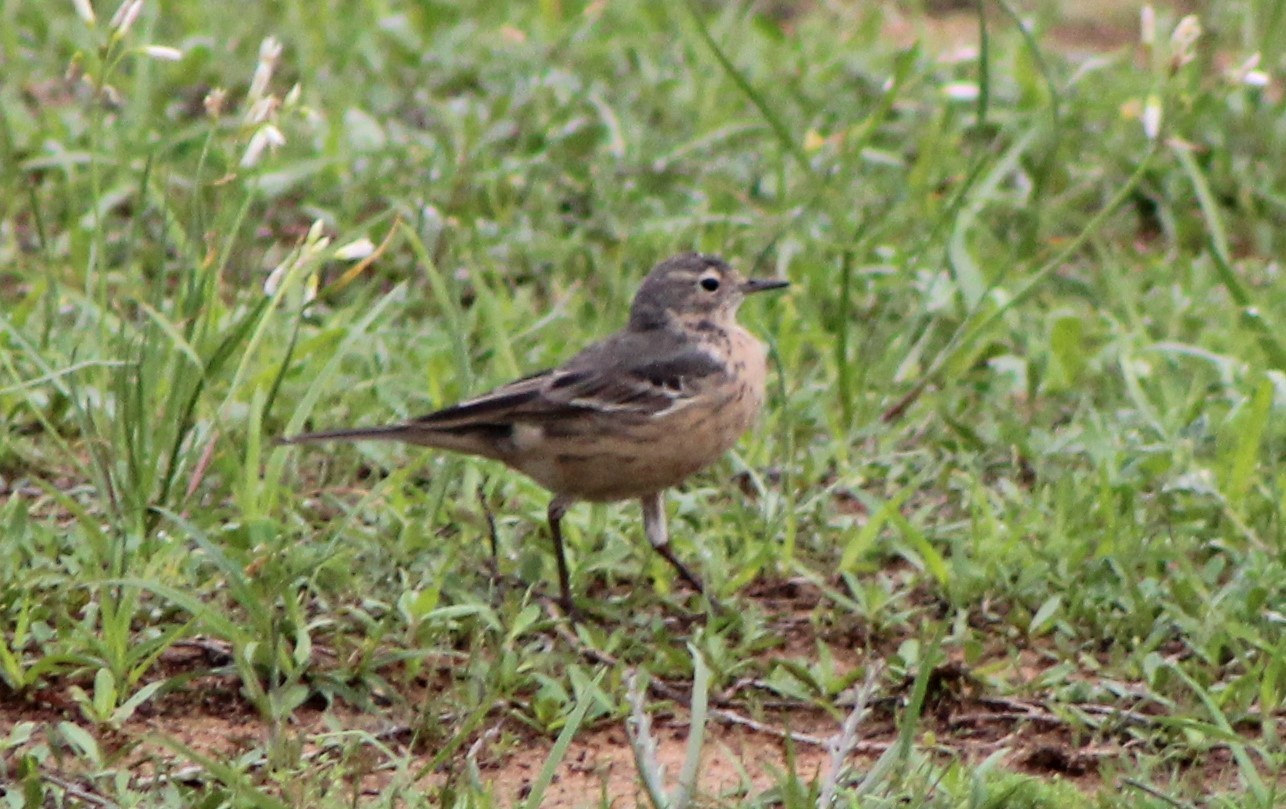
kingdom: Animalia
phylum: Chordata
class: Aves
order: Passeriformes
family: Motacillidae
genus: Anthus
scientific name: Anthus rubescens
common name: Buff-bellied pipit
